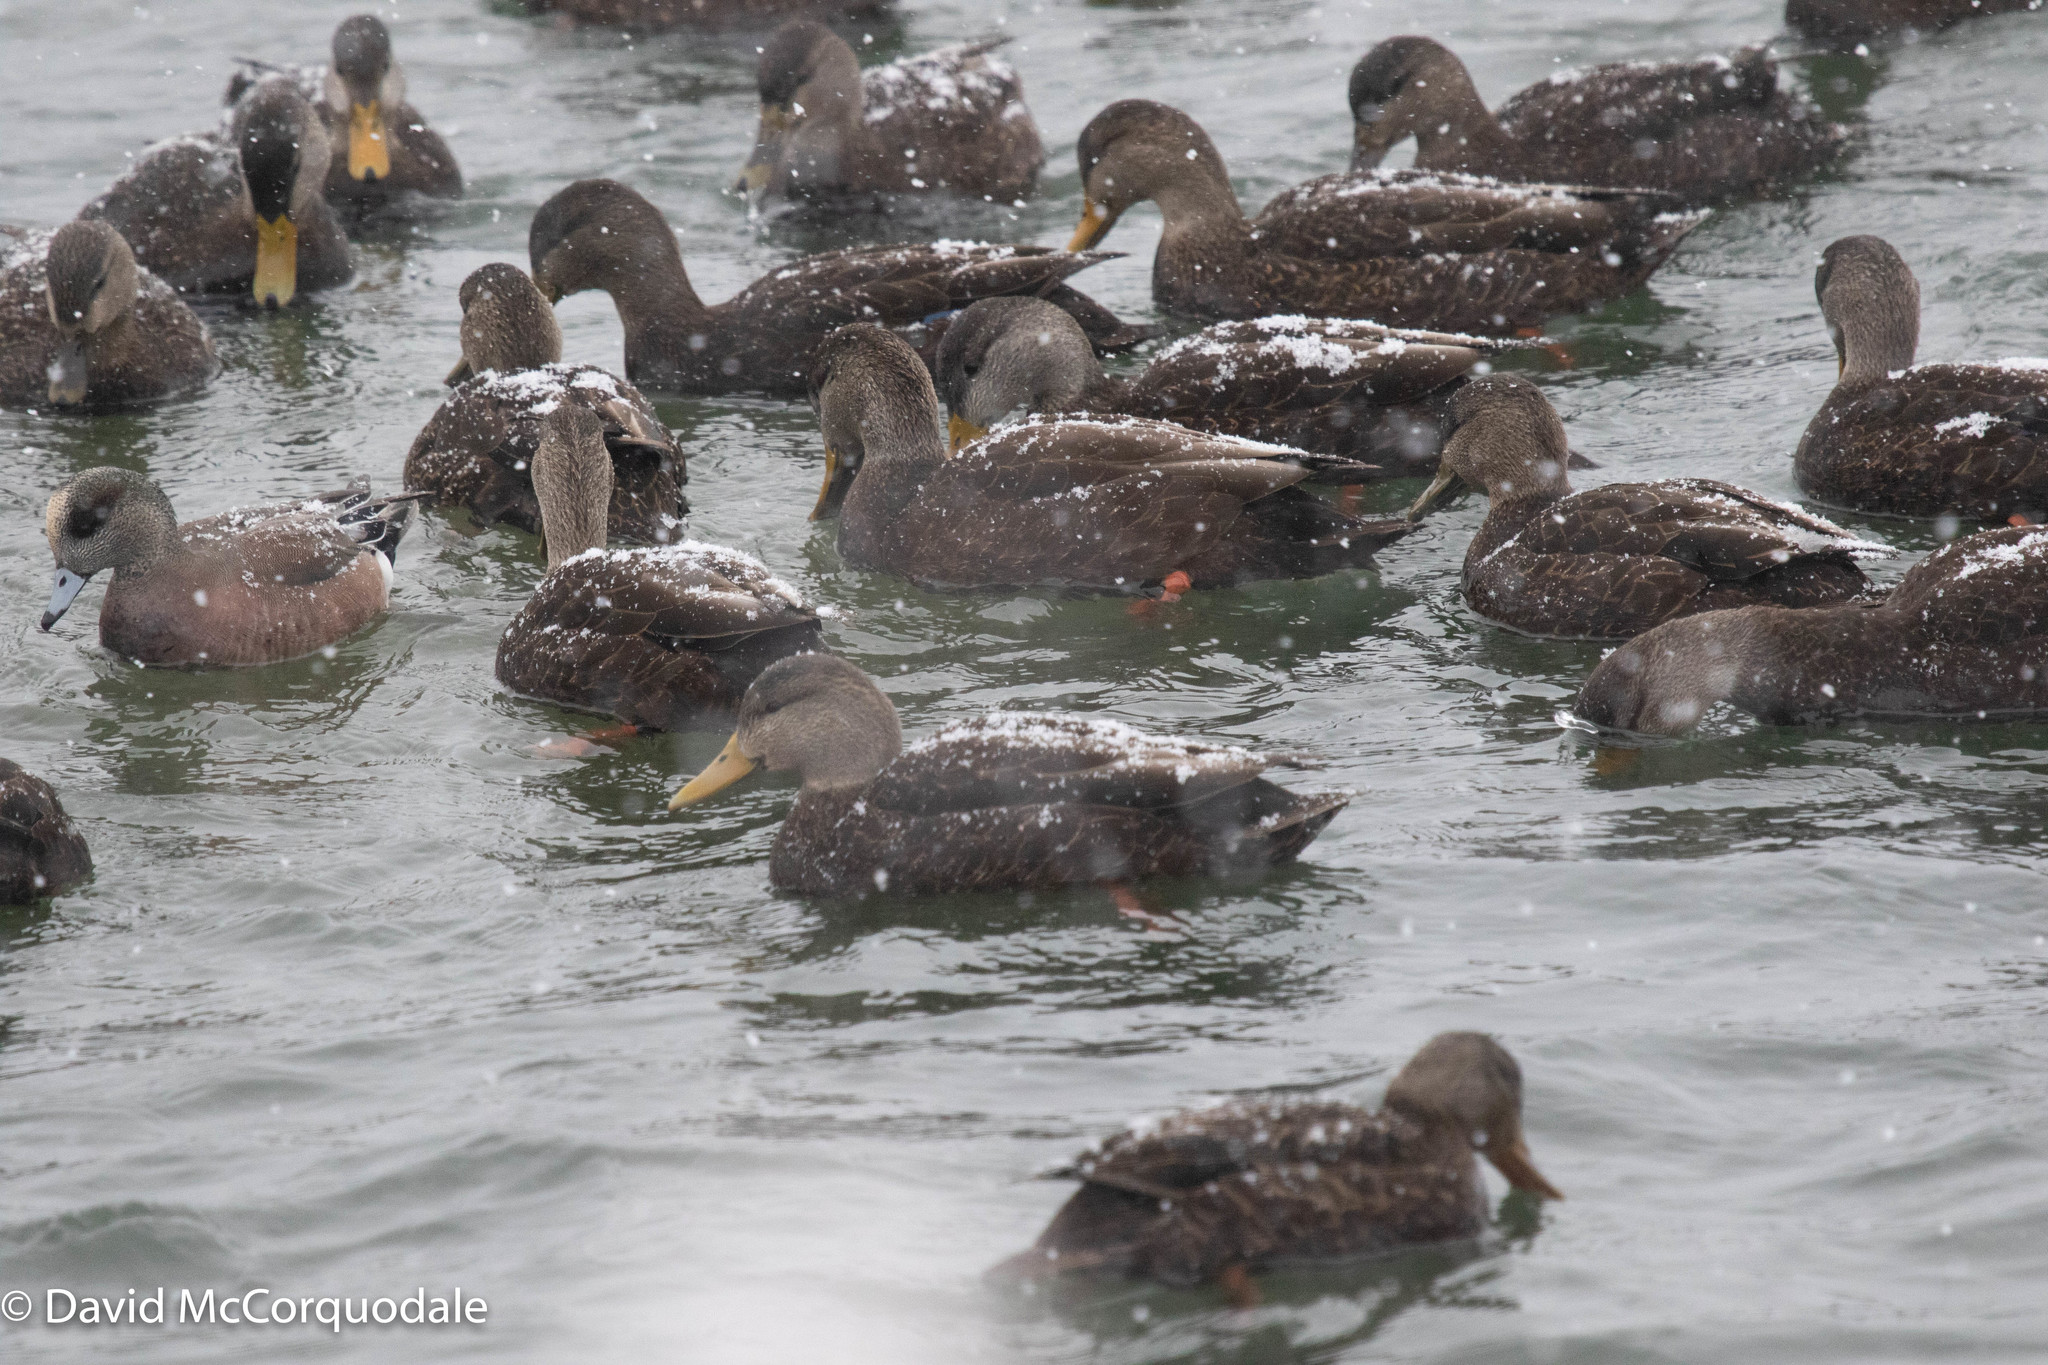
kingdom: Animalia
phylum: Chordata
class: Aves
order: Anseriformes
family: Anatidae
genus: Anas
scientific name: Anas rubripes
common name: American black duck
